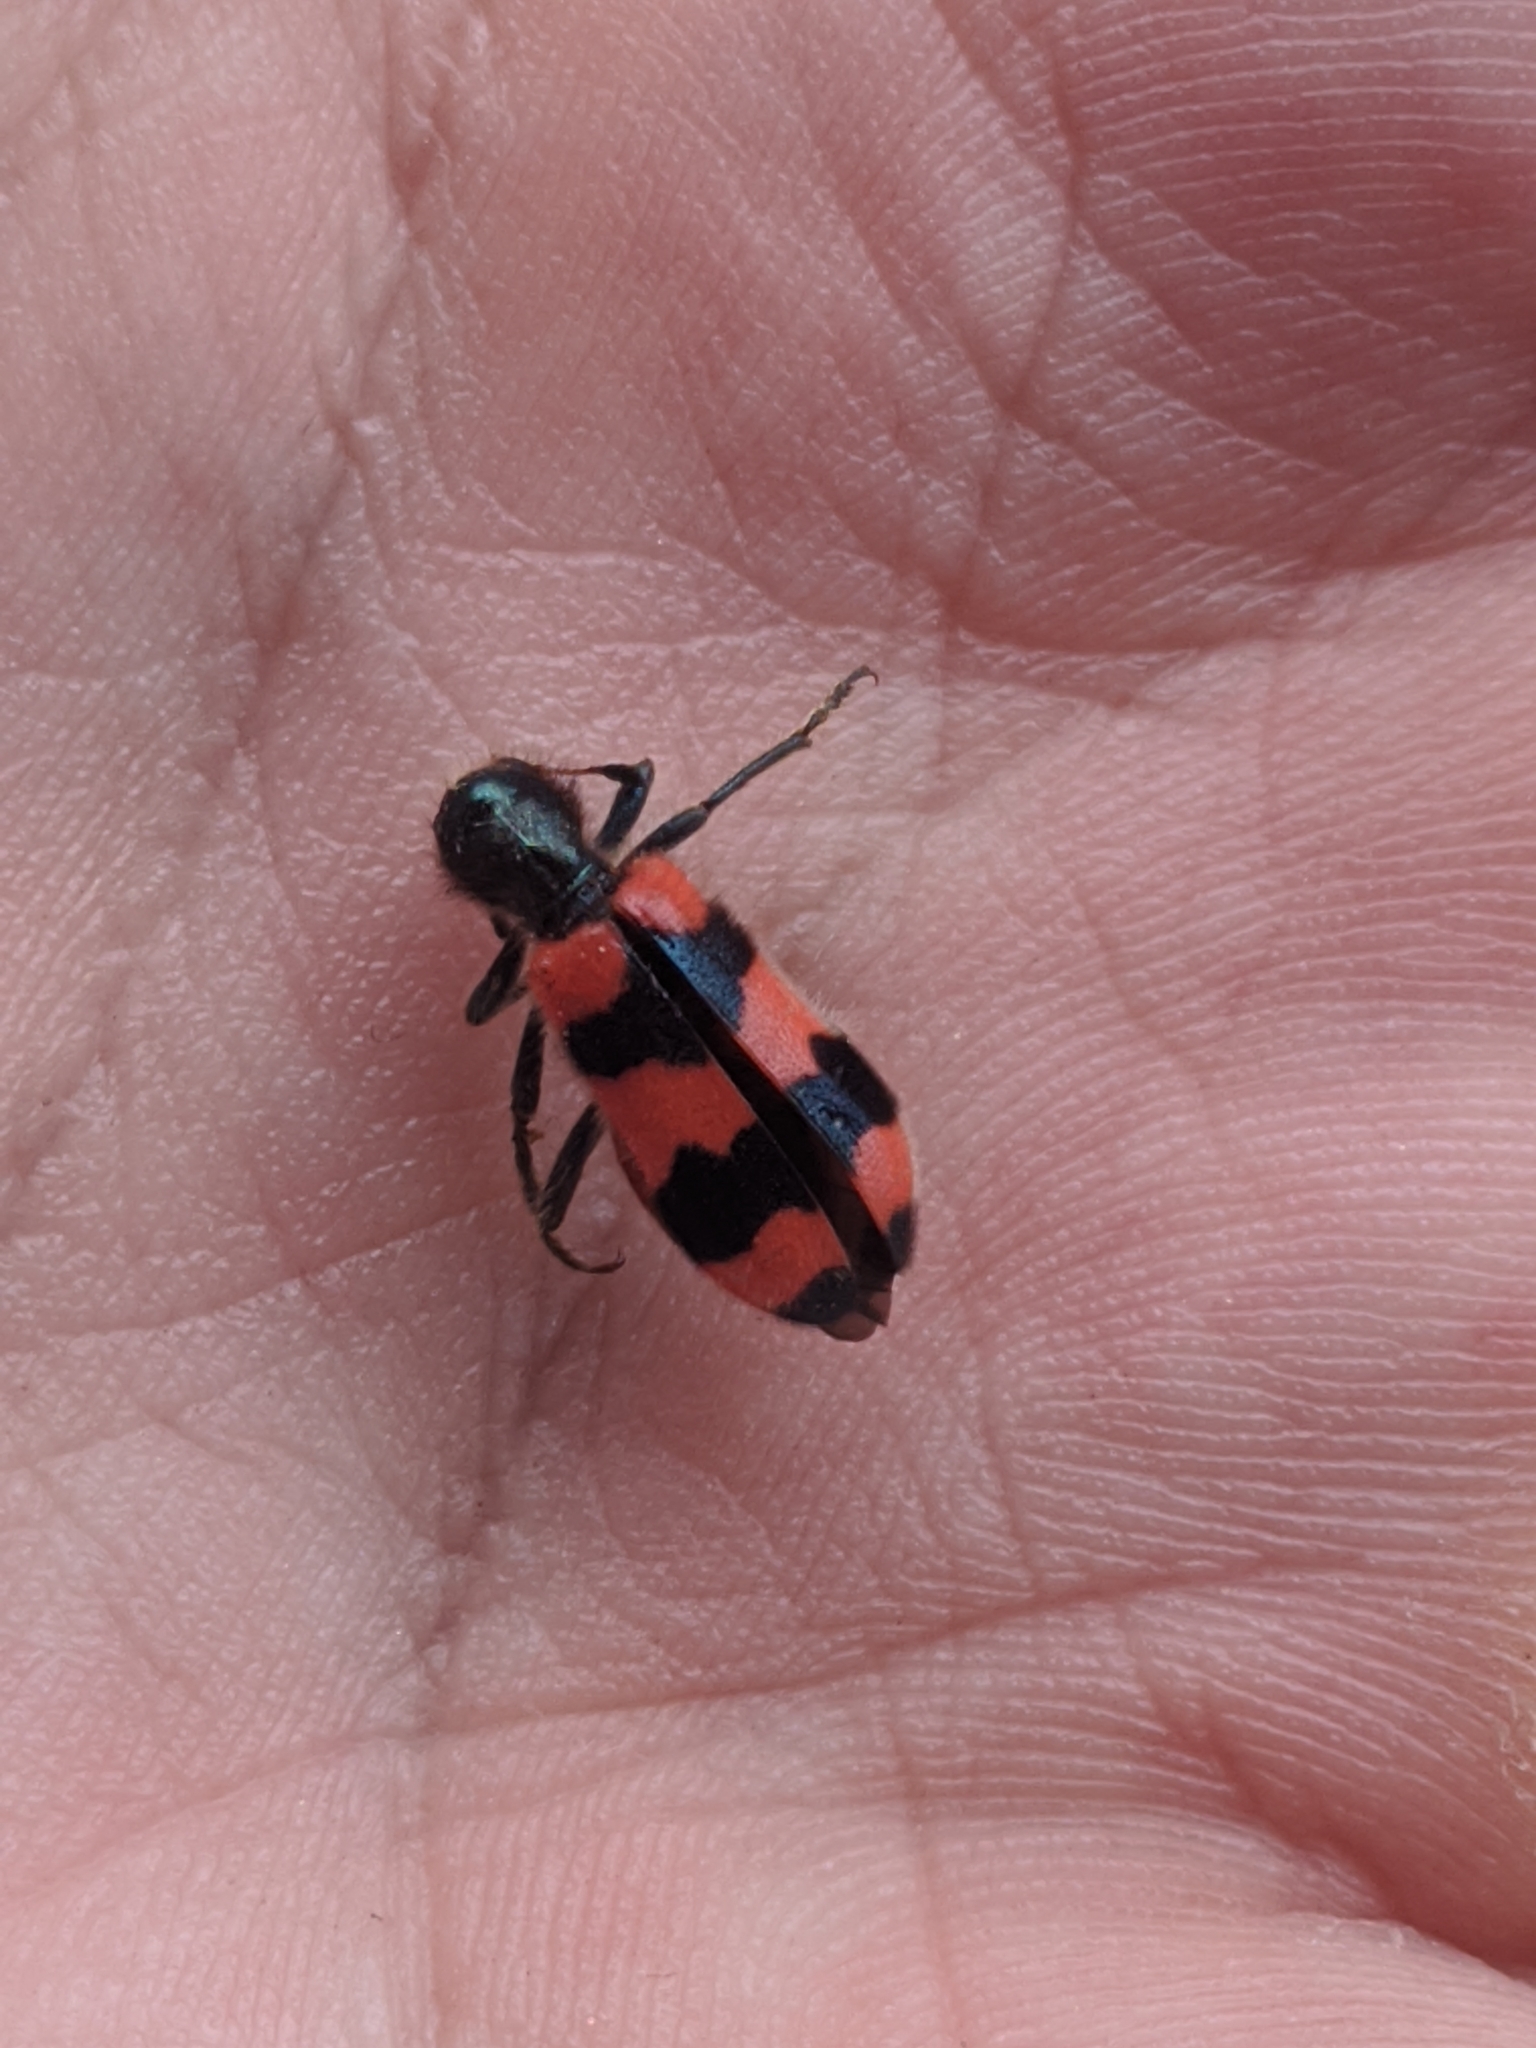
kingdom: Animalia
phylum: Arthropoda
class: Insecta
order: Coleoptera
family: Cleridae
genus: Trichodes
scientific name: Trichodes apiarius
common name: Bee-eating beetle
